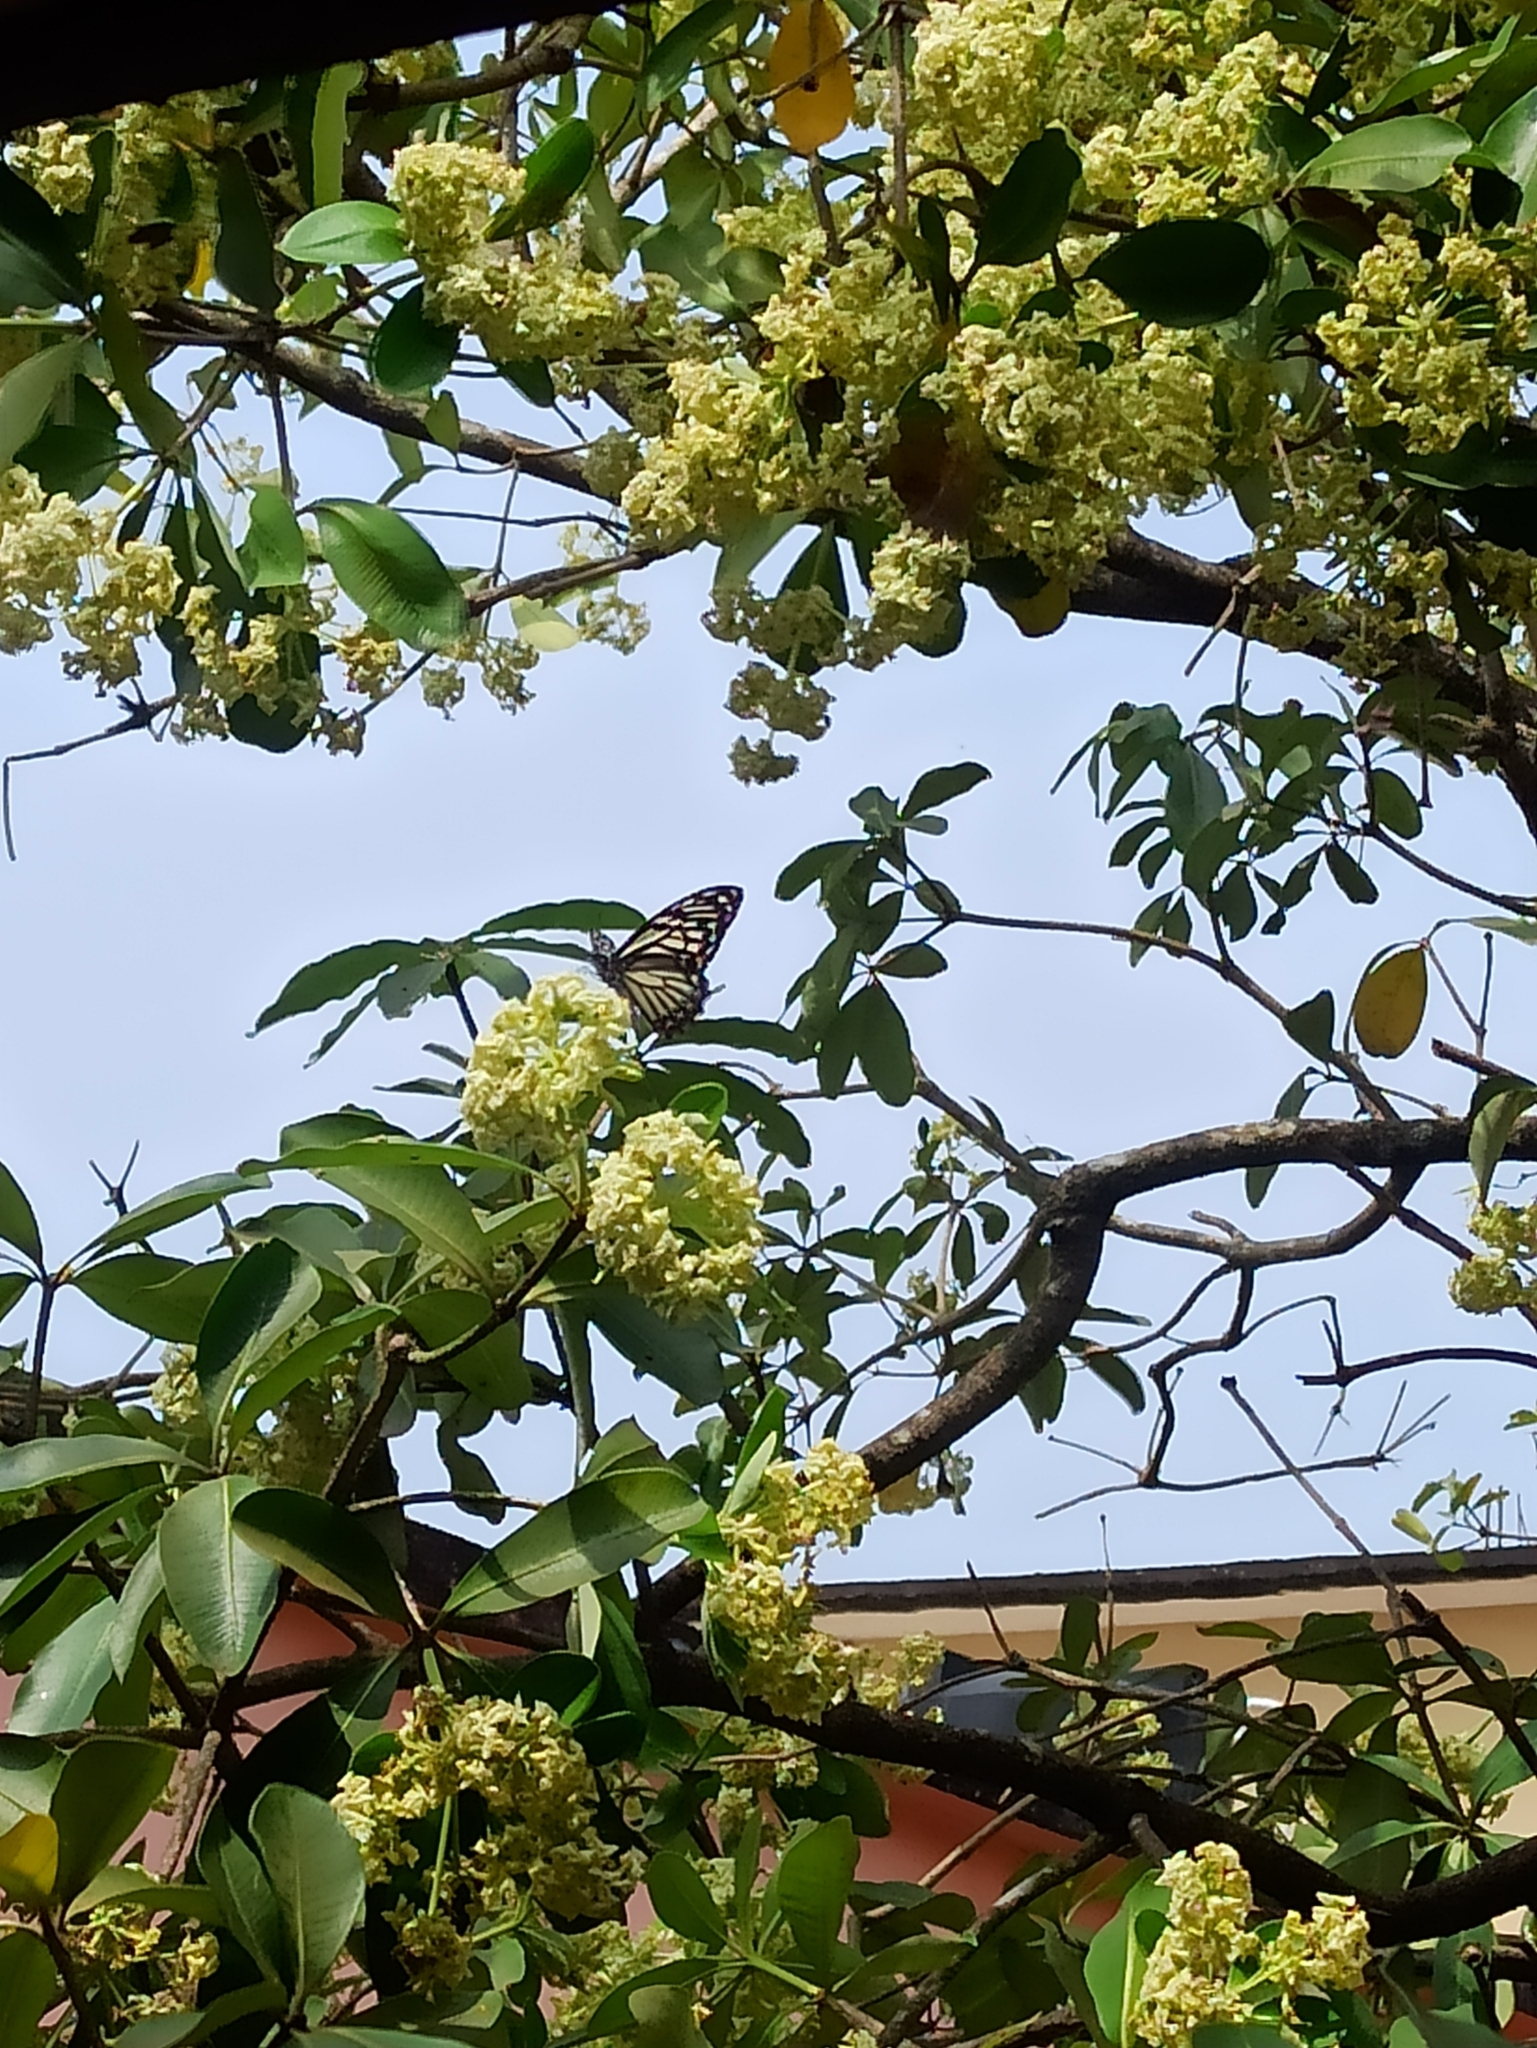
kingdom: Animalia
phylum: Arthropoda
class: Insecta
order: Lepidoptera
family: Papilionidae
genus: Chilasa
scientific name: Chilasa clytia
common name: Common mime
